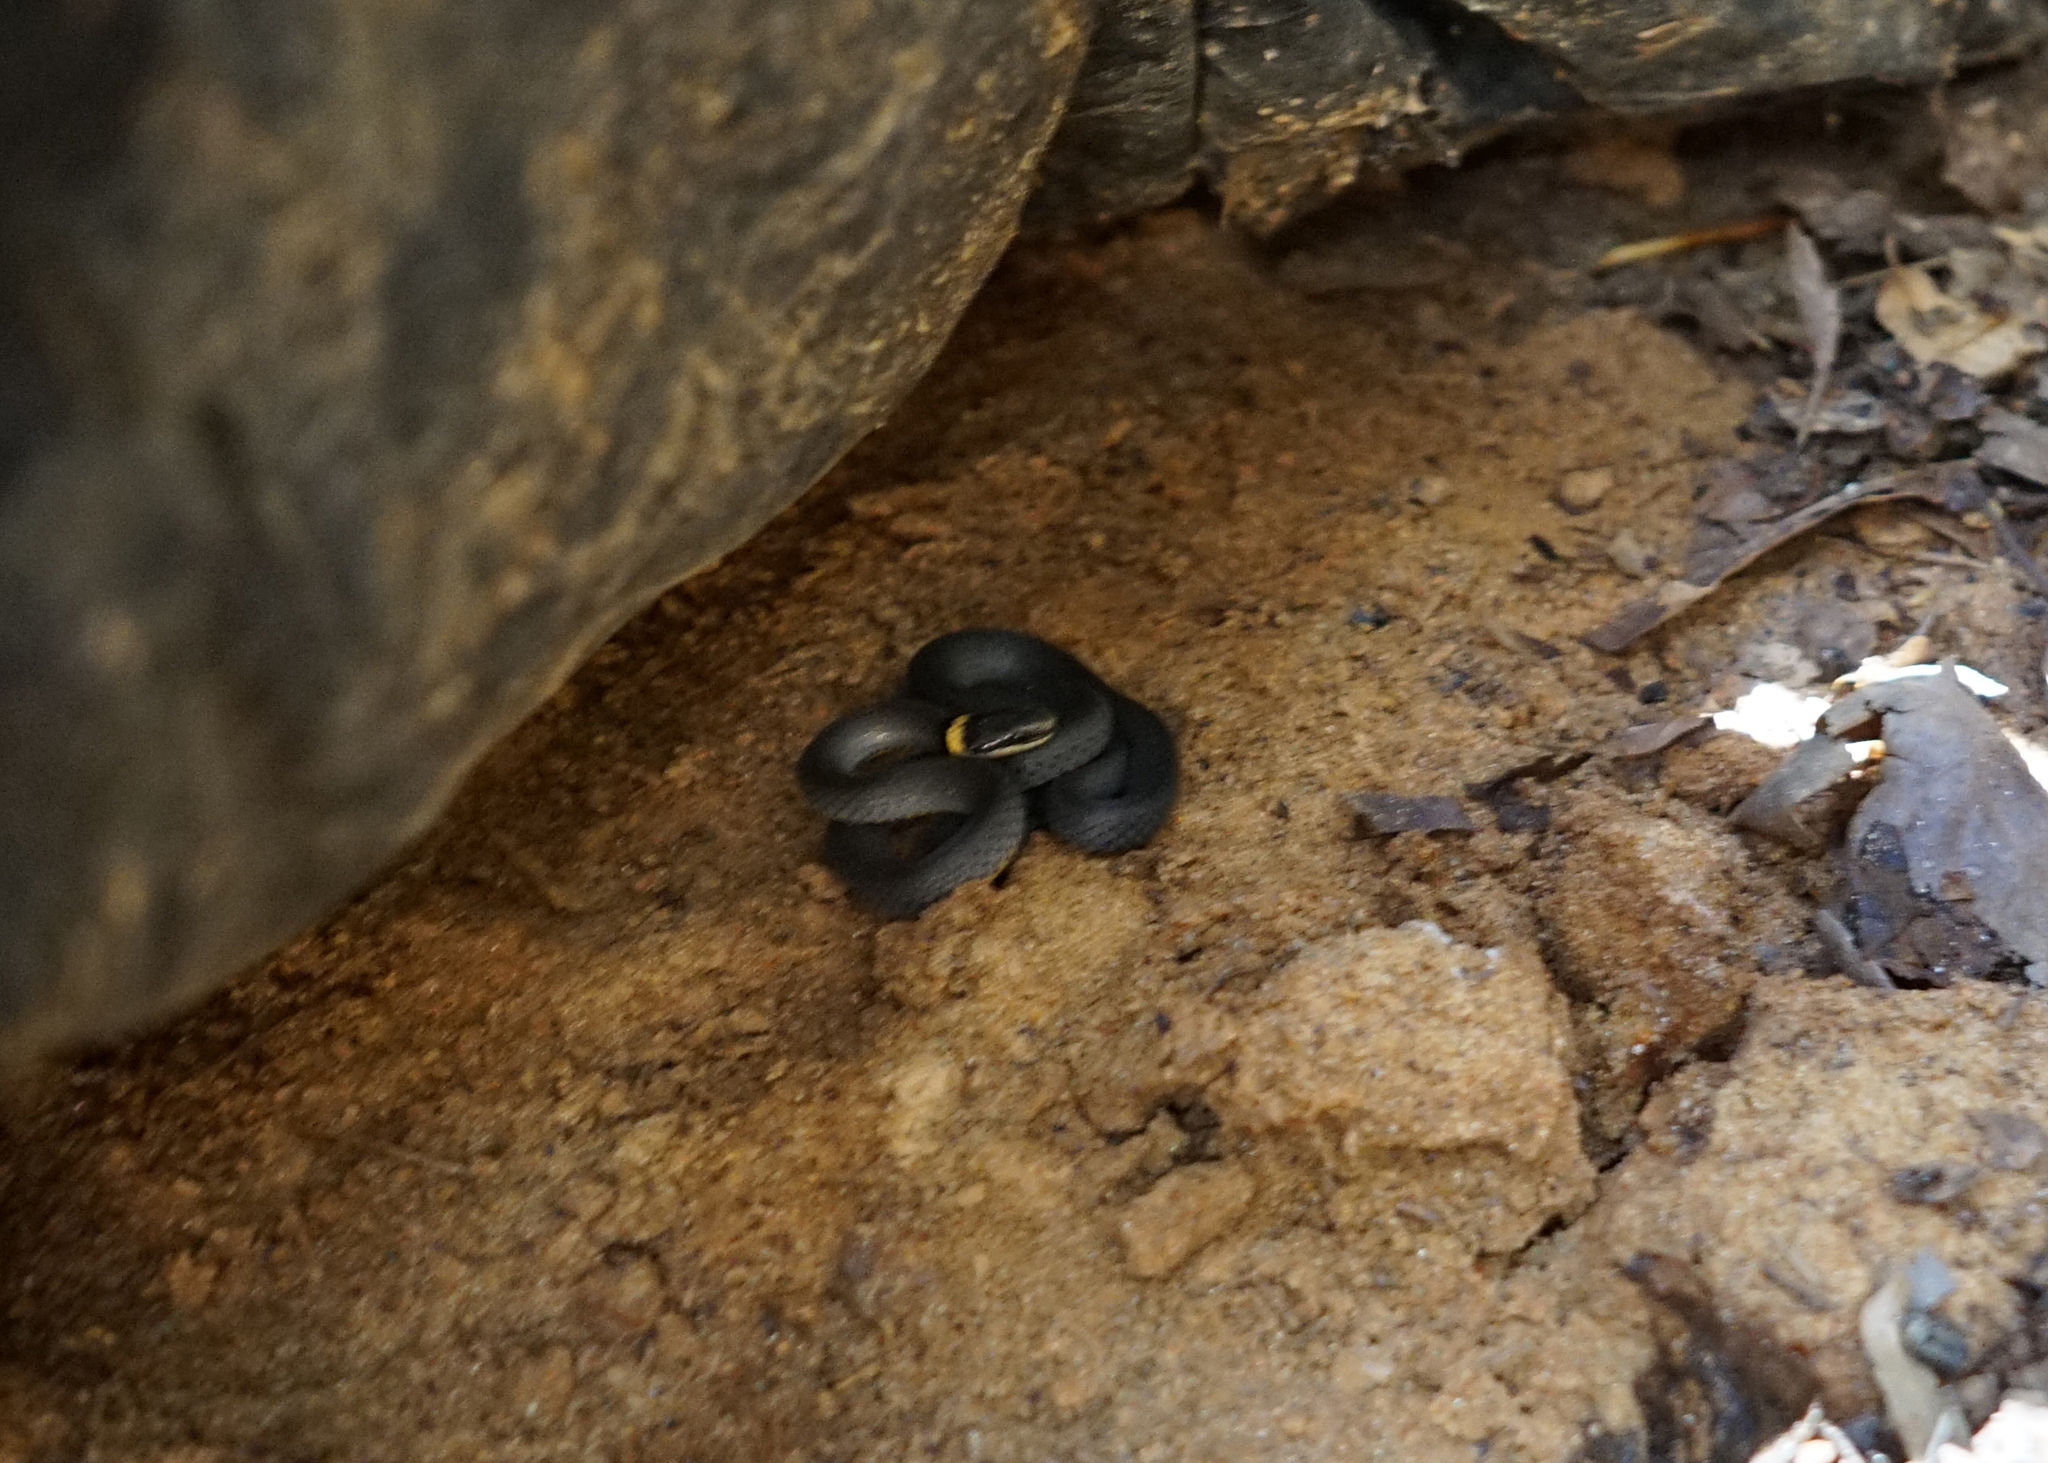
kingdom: Animalia
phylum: Chordata
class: Squamata
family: Colubridae
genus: Diadophis
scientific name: Diadophis punctatus
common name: Ringneck snake
